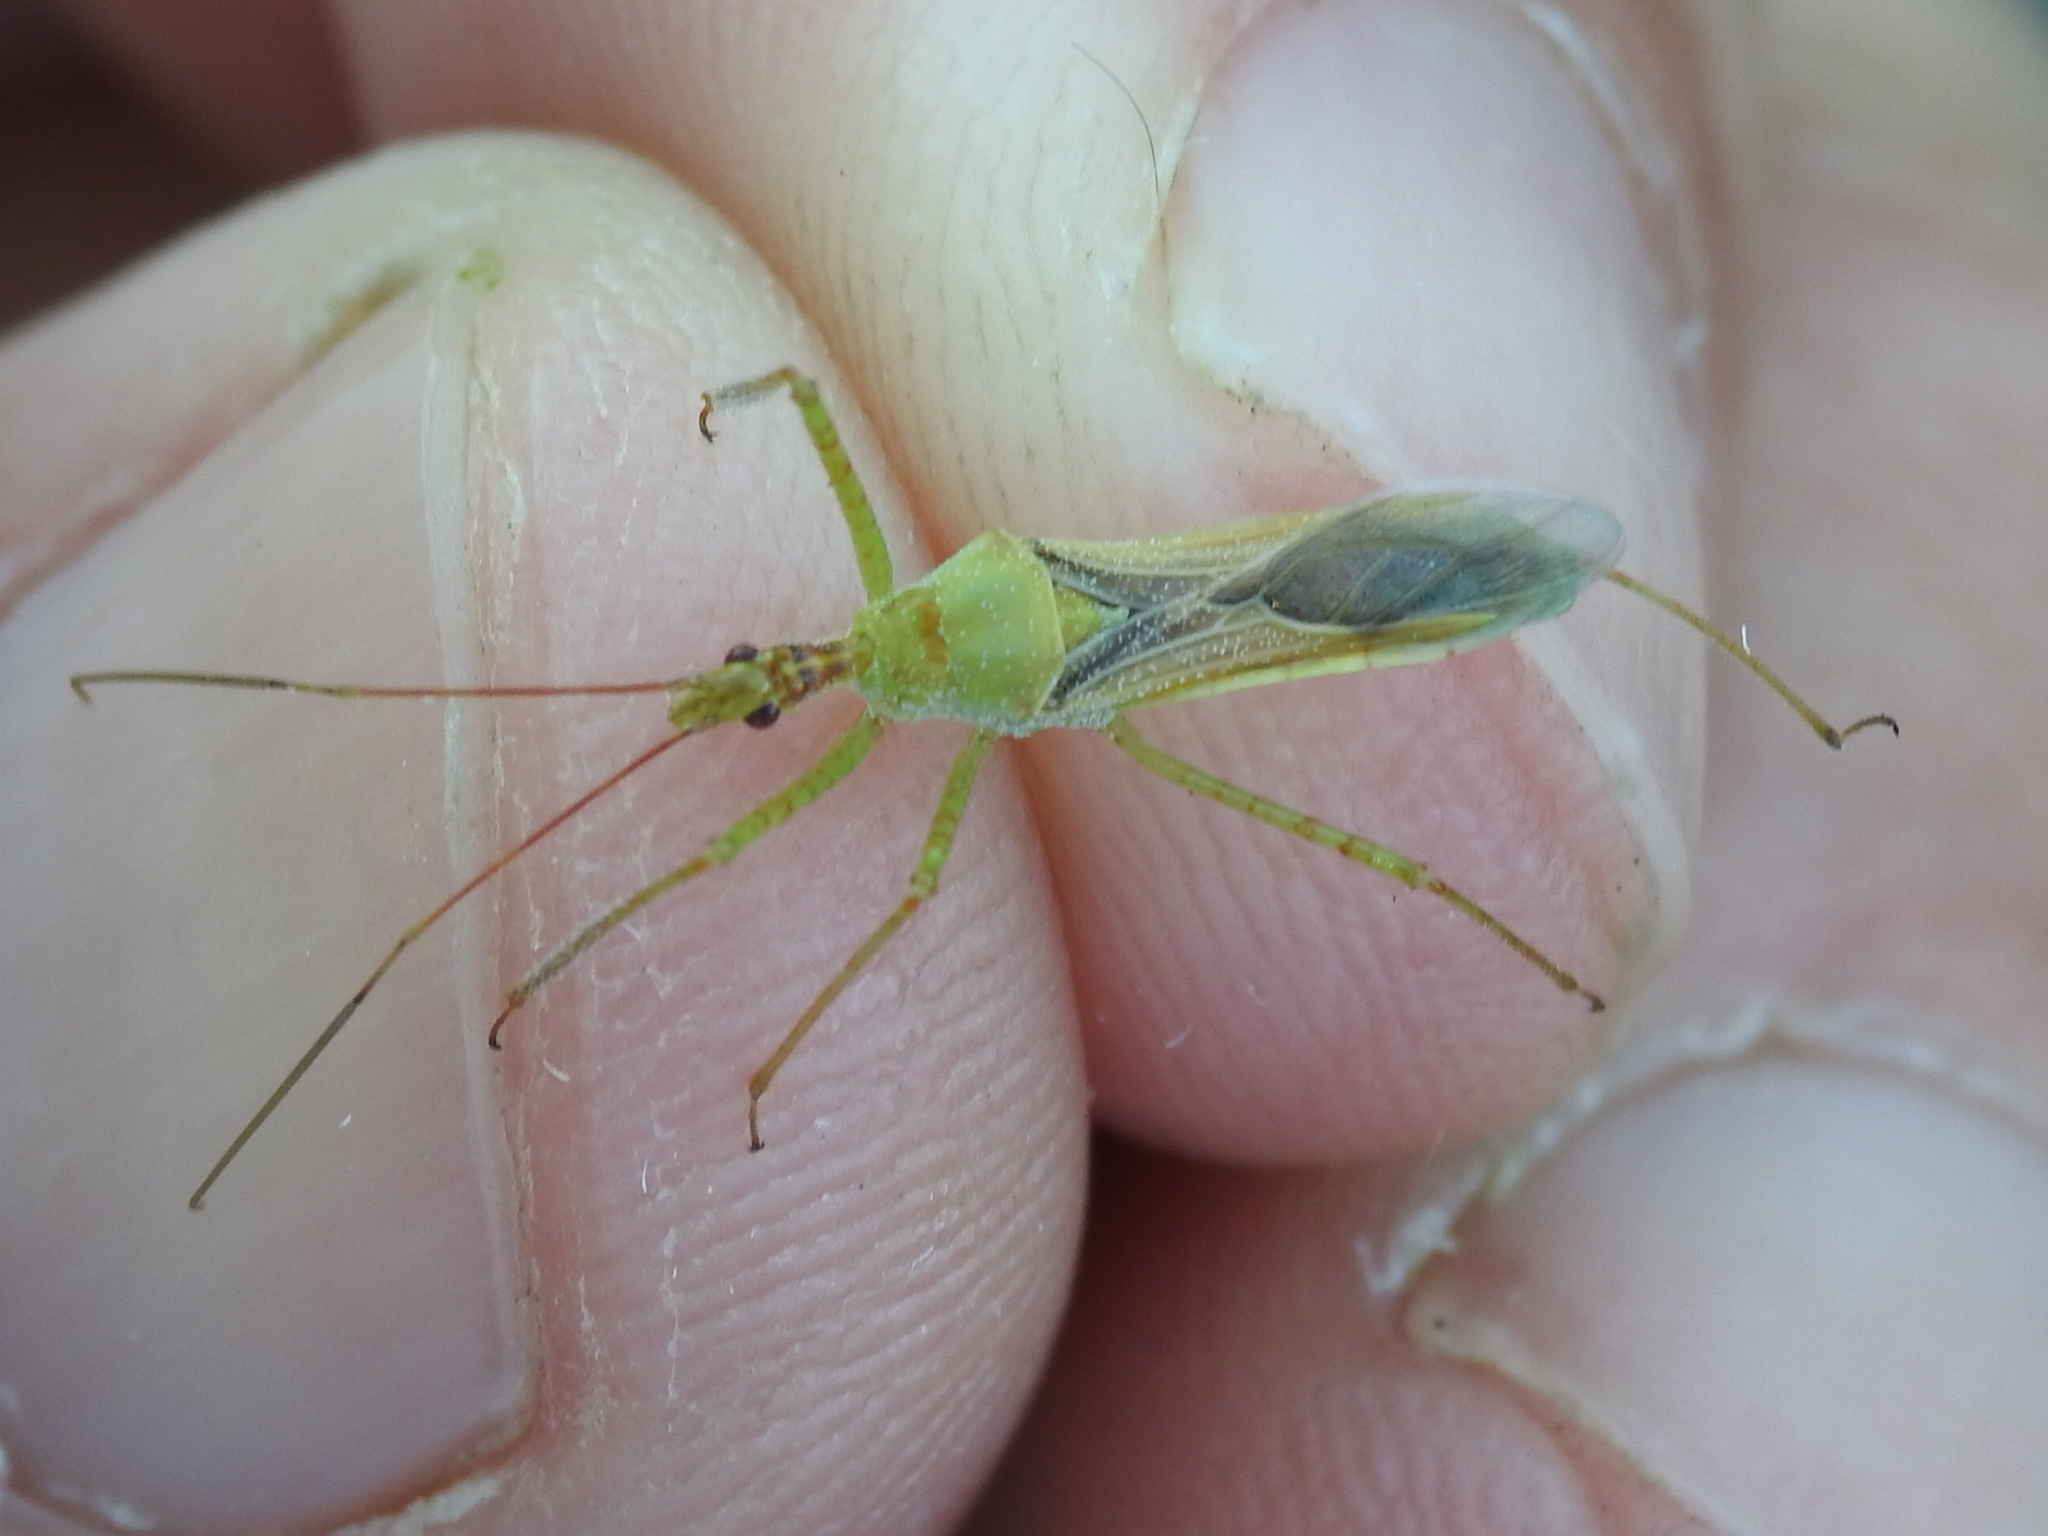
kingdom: Animalia
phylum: Arthropoda
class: Insecta
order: Hemiptera
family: Reduviidae
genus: Zelus
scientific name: Zelus renardii
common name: Assassin bug
